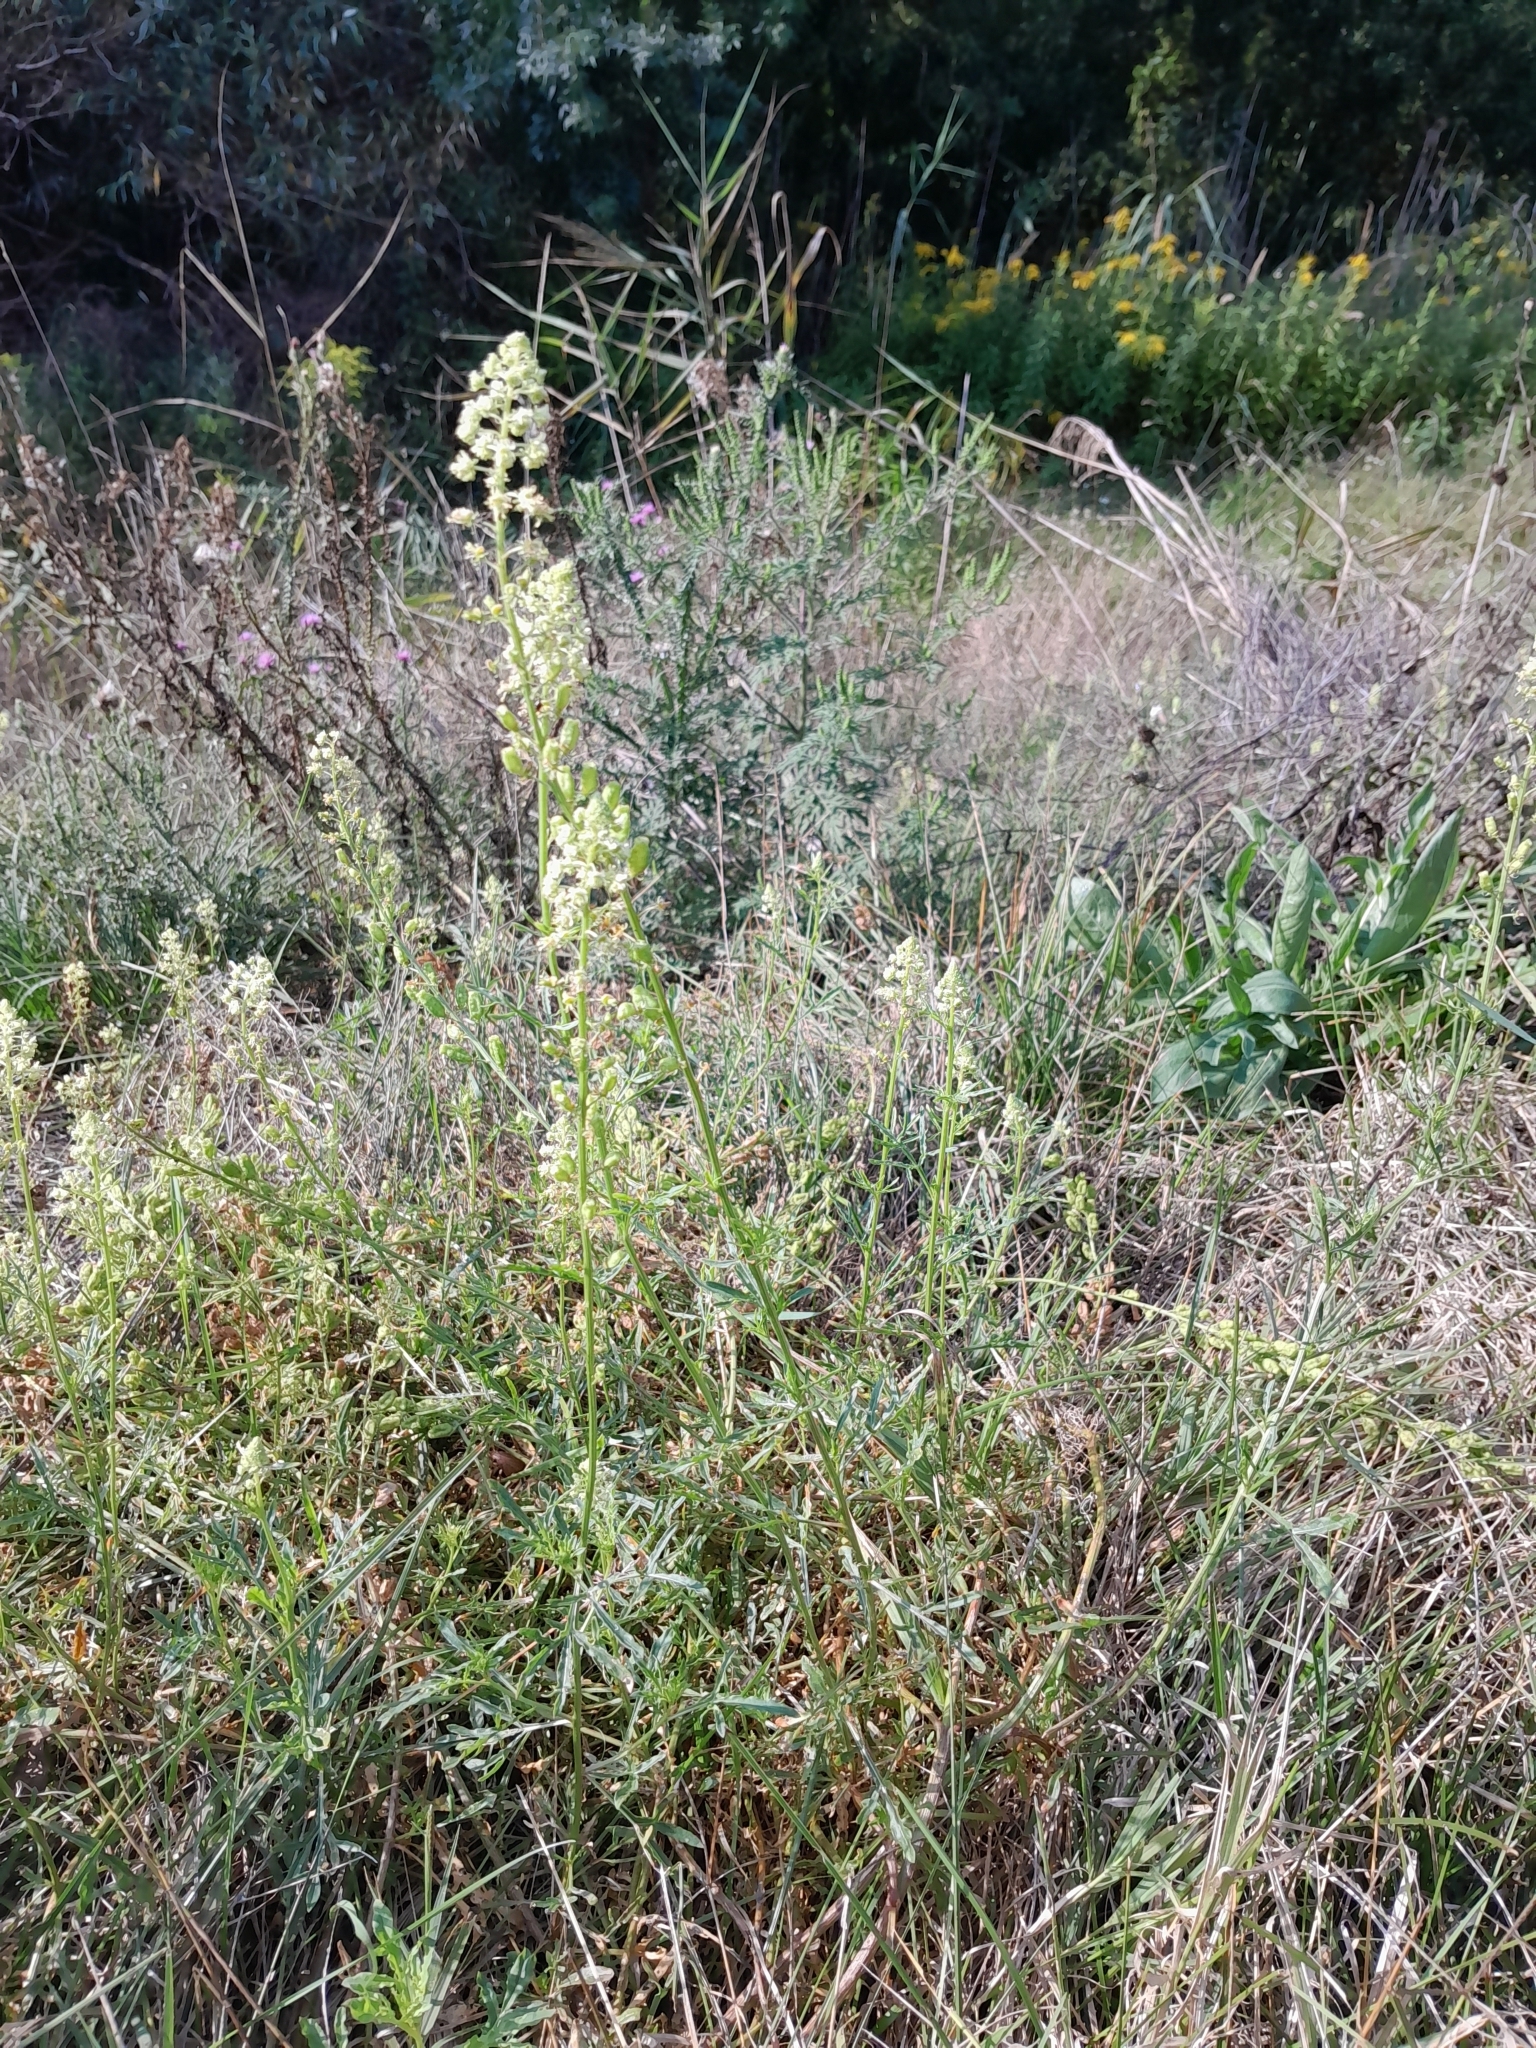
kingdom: Plantae
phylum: Tracheophyta
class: Magnoliopsida
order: Brassicales
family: Resedaceae
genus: Reseda
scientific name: Reseda lutea
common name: Wild mignonette
